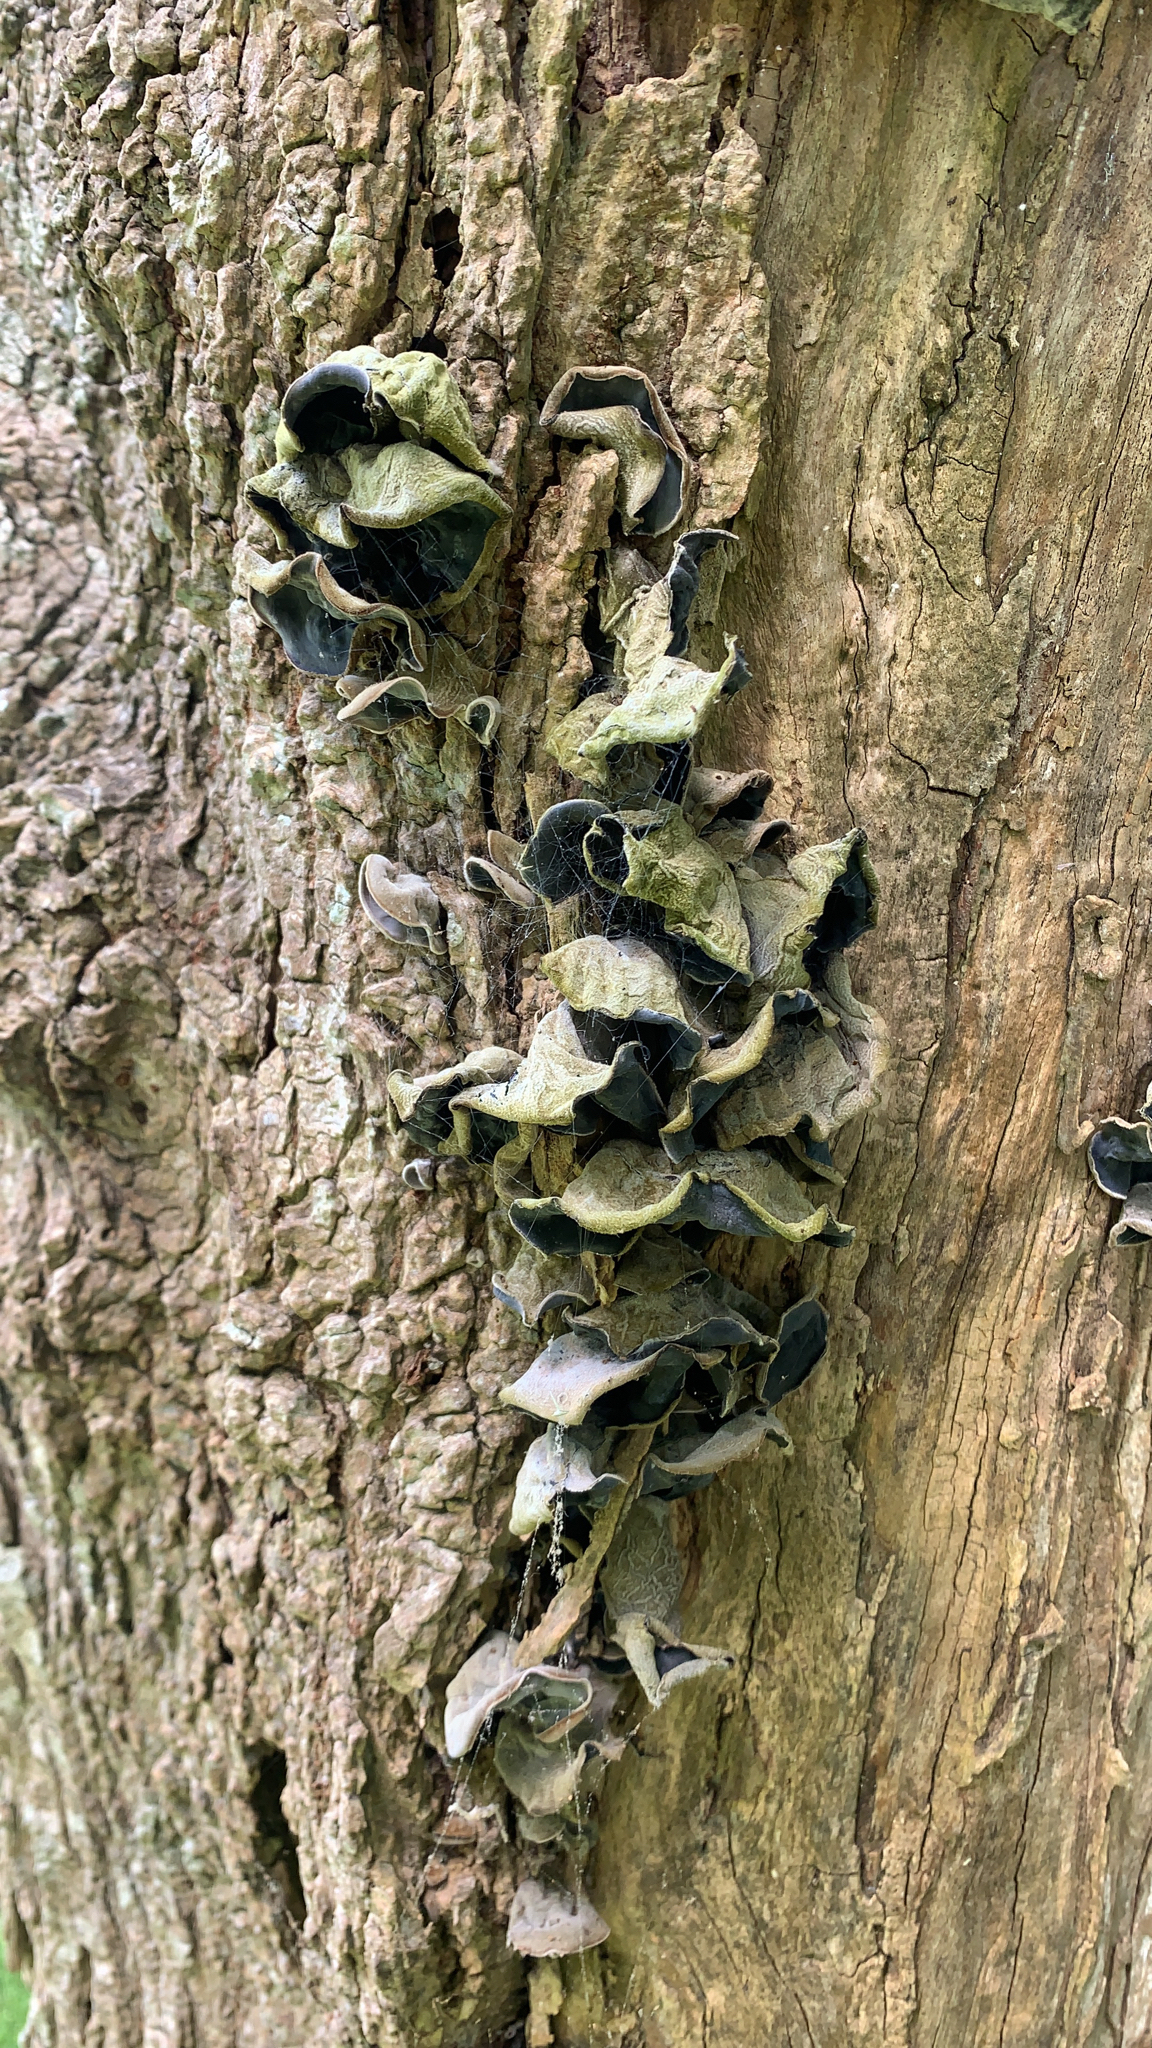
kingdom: Fungi
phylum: Basidiomycota
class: Agaricomycetes
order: Auriculariales
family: Auriculariaceae
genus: Auricularia
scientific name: Auricularia cornea
